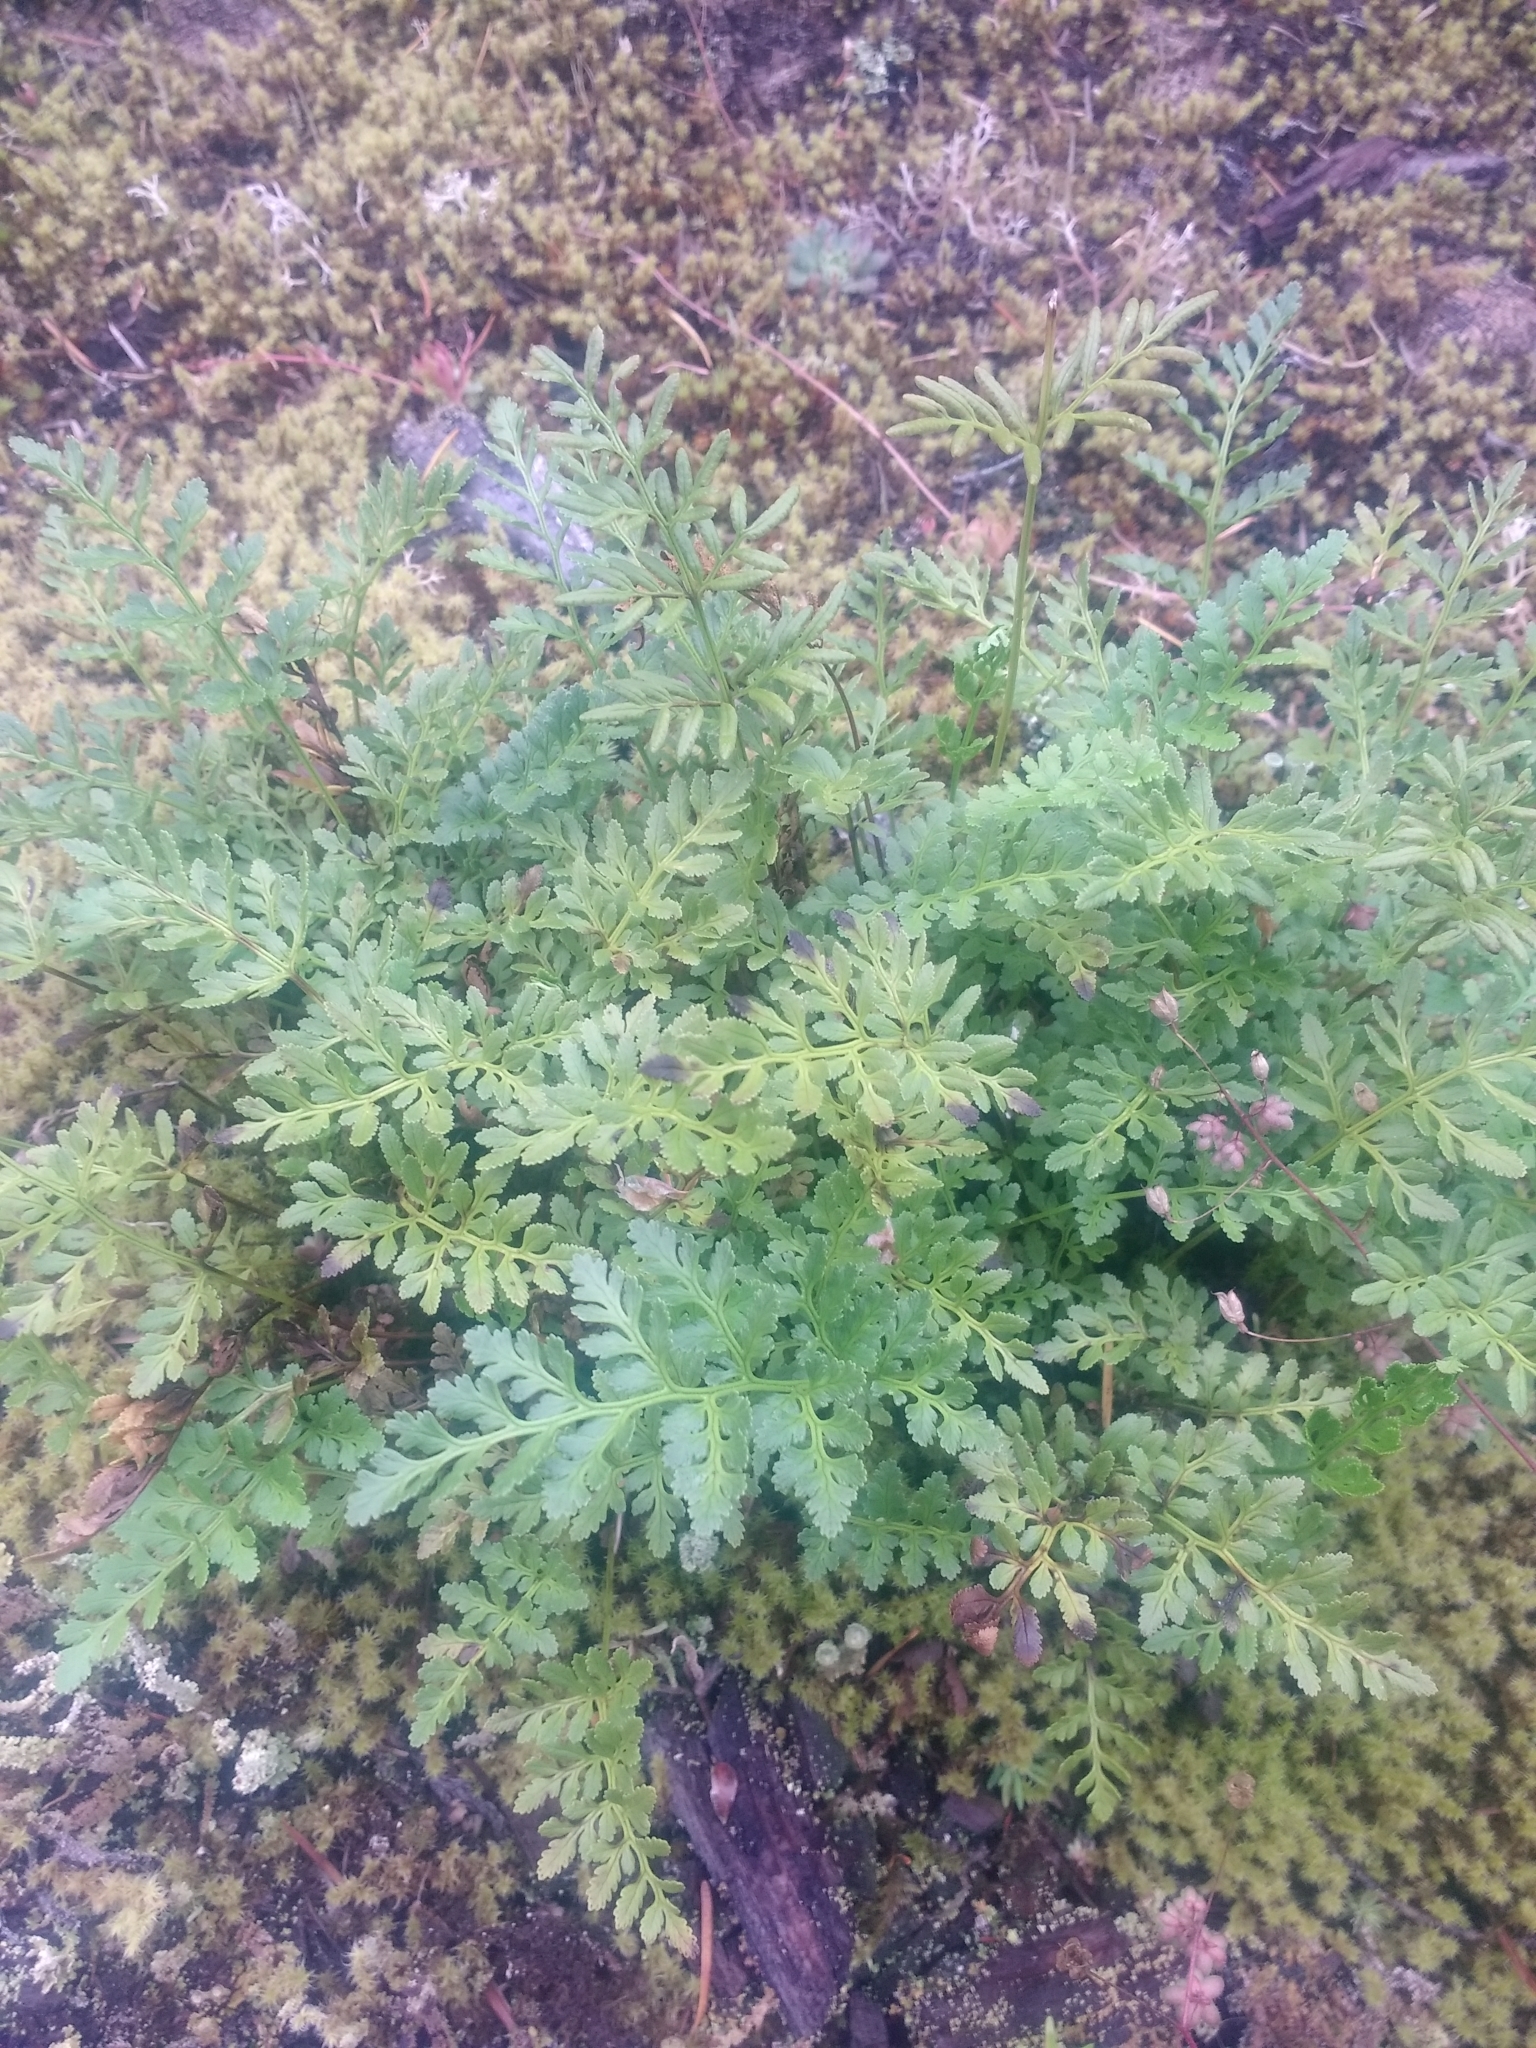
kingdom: Plantae
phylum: Tracheophyta
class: Polypodiopsida
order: Polypodiales
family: Pteridaceae
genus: Cryptogramma
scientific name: Cryptogramma acrostichoides
